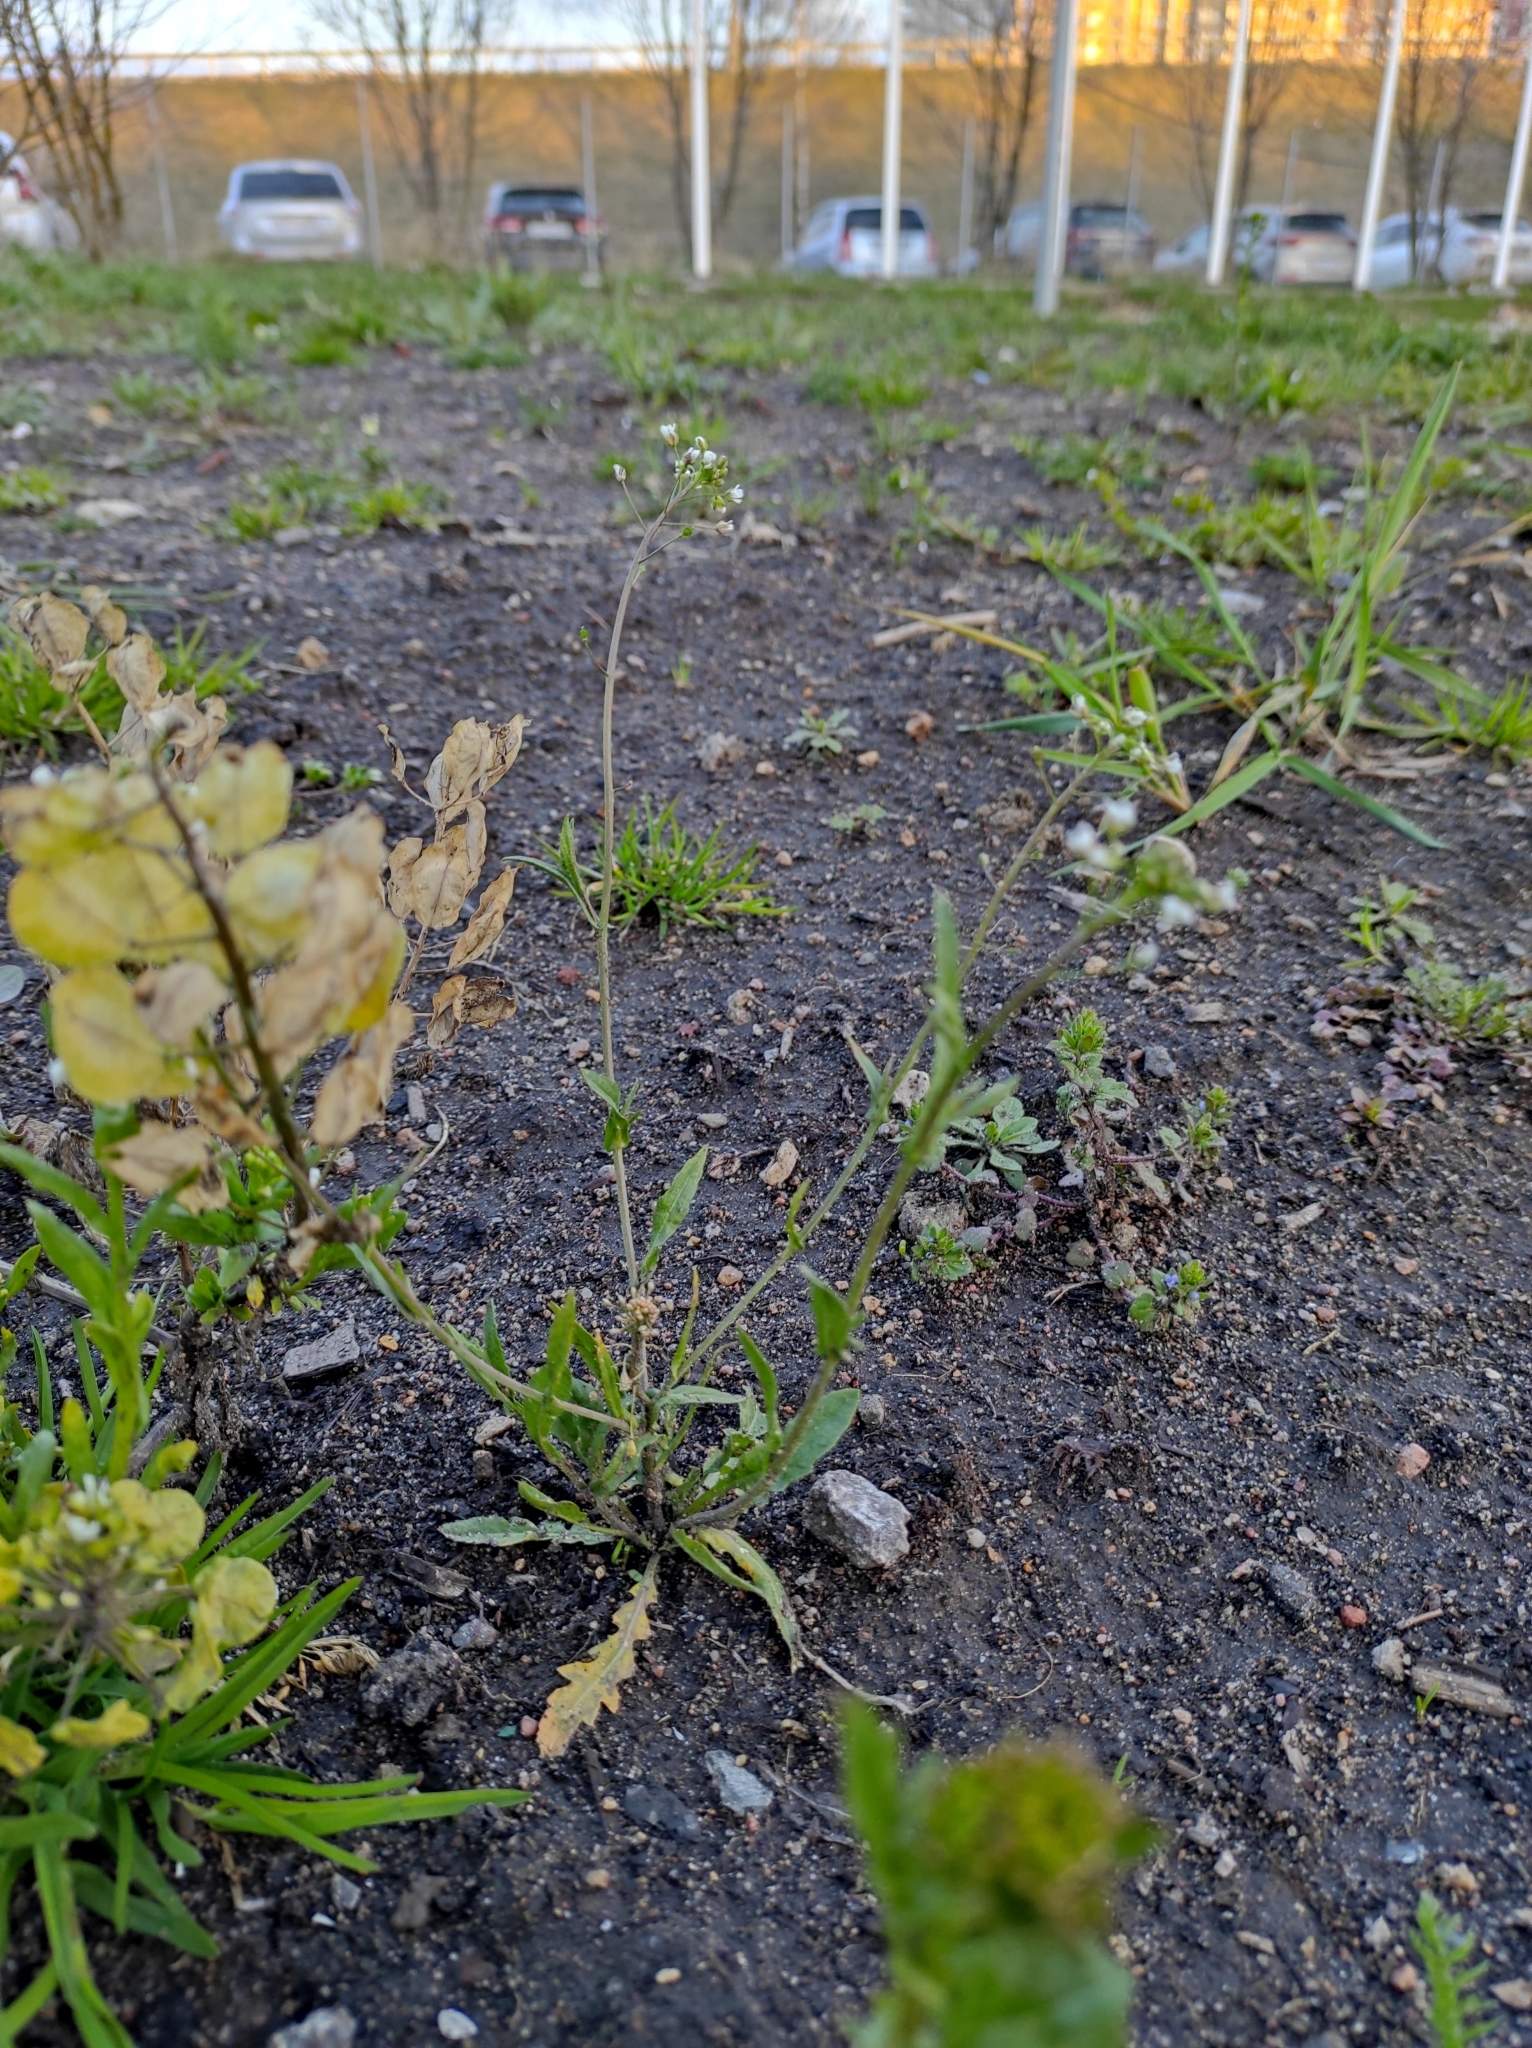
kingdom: Plantae
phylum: Tracheophyta
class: Magnoliopsida
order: Brassicales
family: Brassicaceae
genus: Capsella
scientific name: Capsella bursa-pastoris
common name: Shepherd's purse
